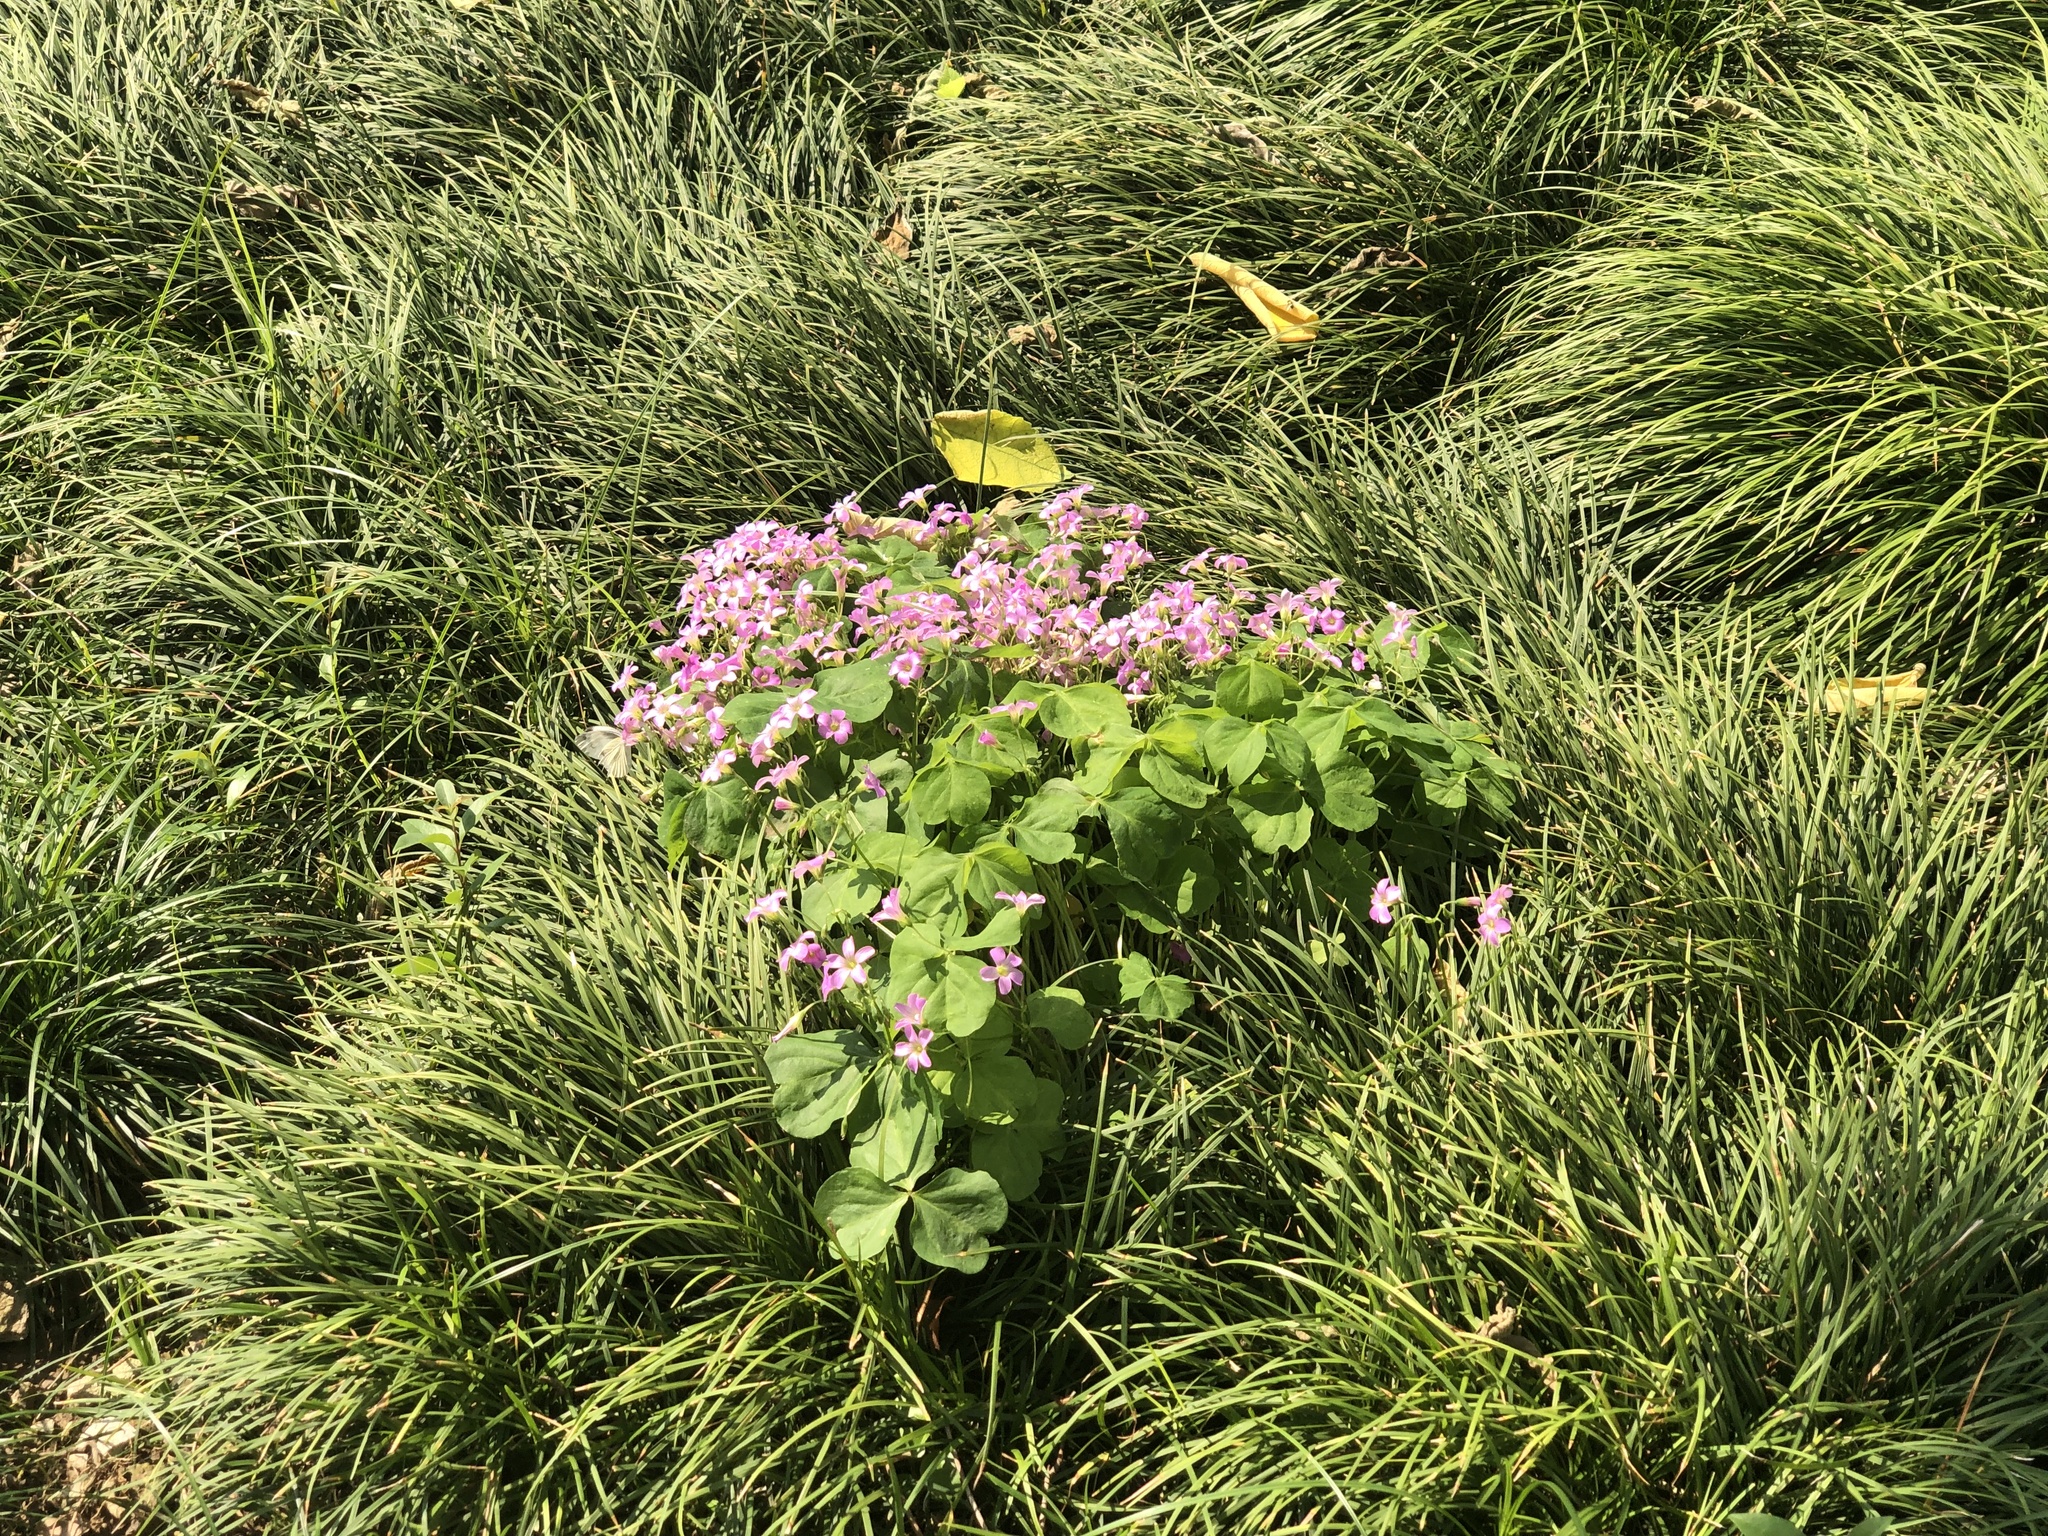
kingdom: Plantae
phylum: Tracheophyta
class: Magnoliopsida
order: Oxalidales
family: Oxalidaceae
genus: Oxalis
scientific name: Oxalis debilis
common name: Large-flowered pink-sorrel
